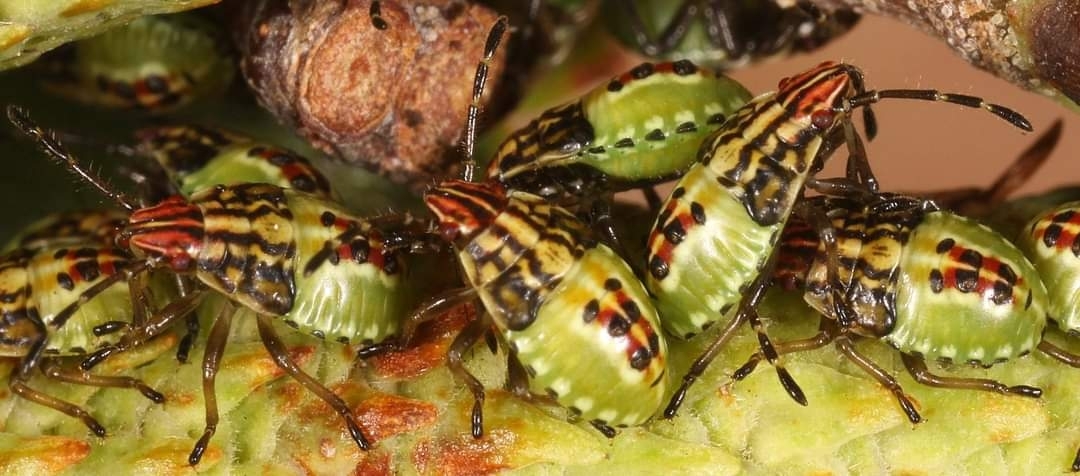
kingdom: Animalia
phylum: Arthropoda
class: Insecta
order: Hemiptera
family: Acanthosomatidae
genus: Elasmucha
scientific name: Elasmucha grisea
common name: Parent bug
